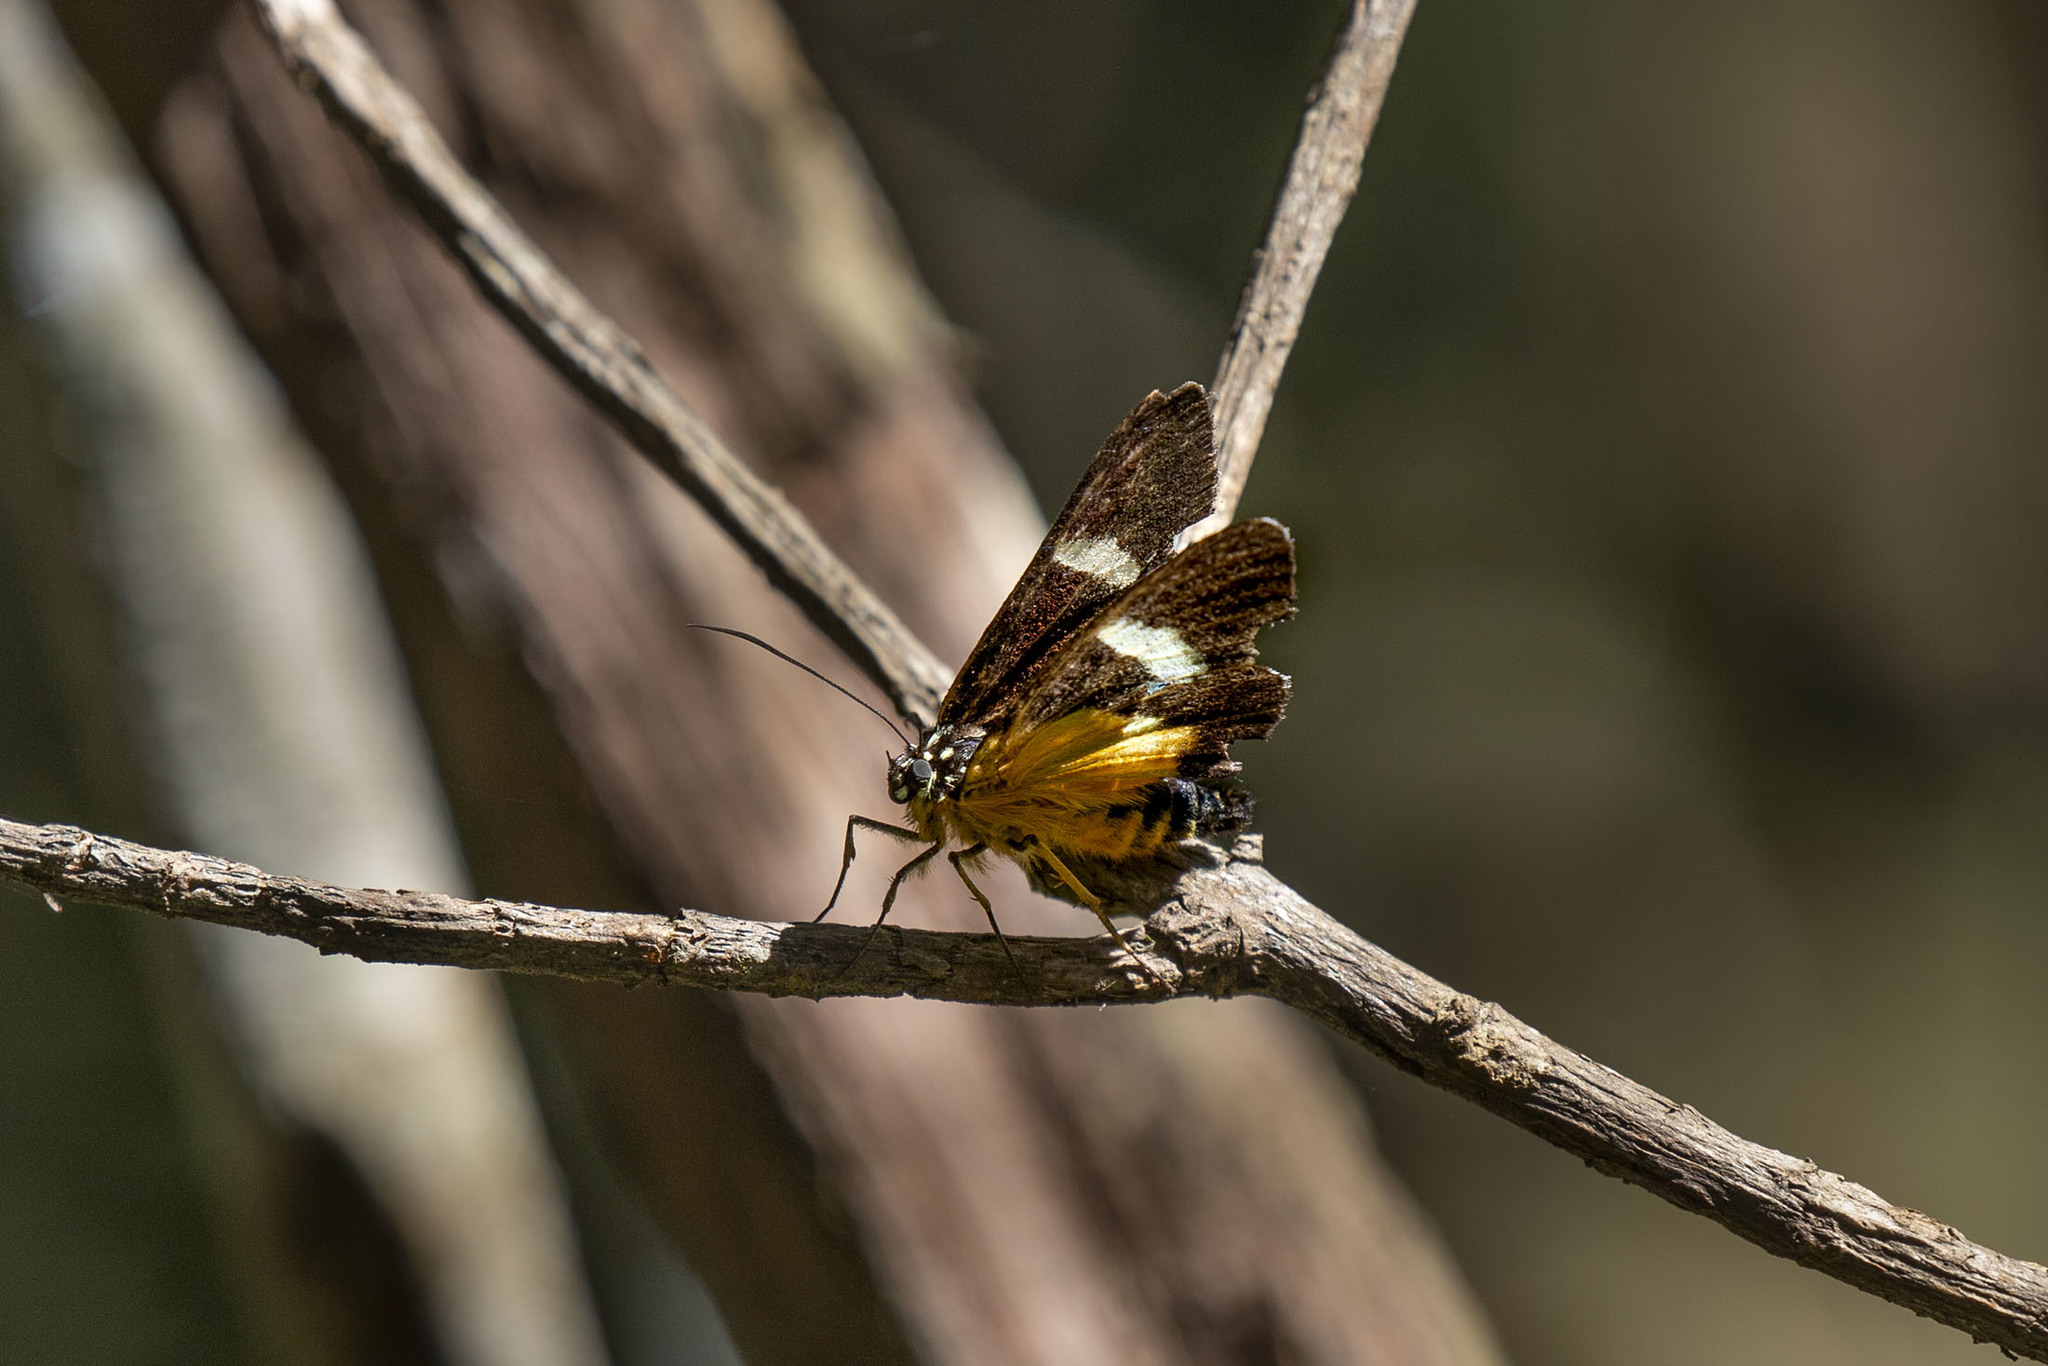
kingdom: Animalia
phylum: Arthropoda
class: Insecta
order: Lepidoptera
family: Noctuidae
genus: Rothia
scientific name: Rothia micropales
